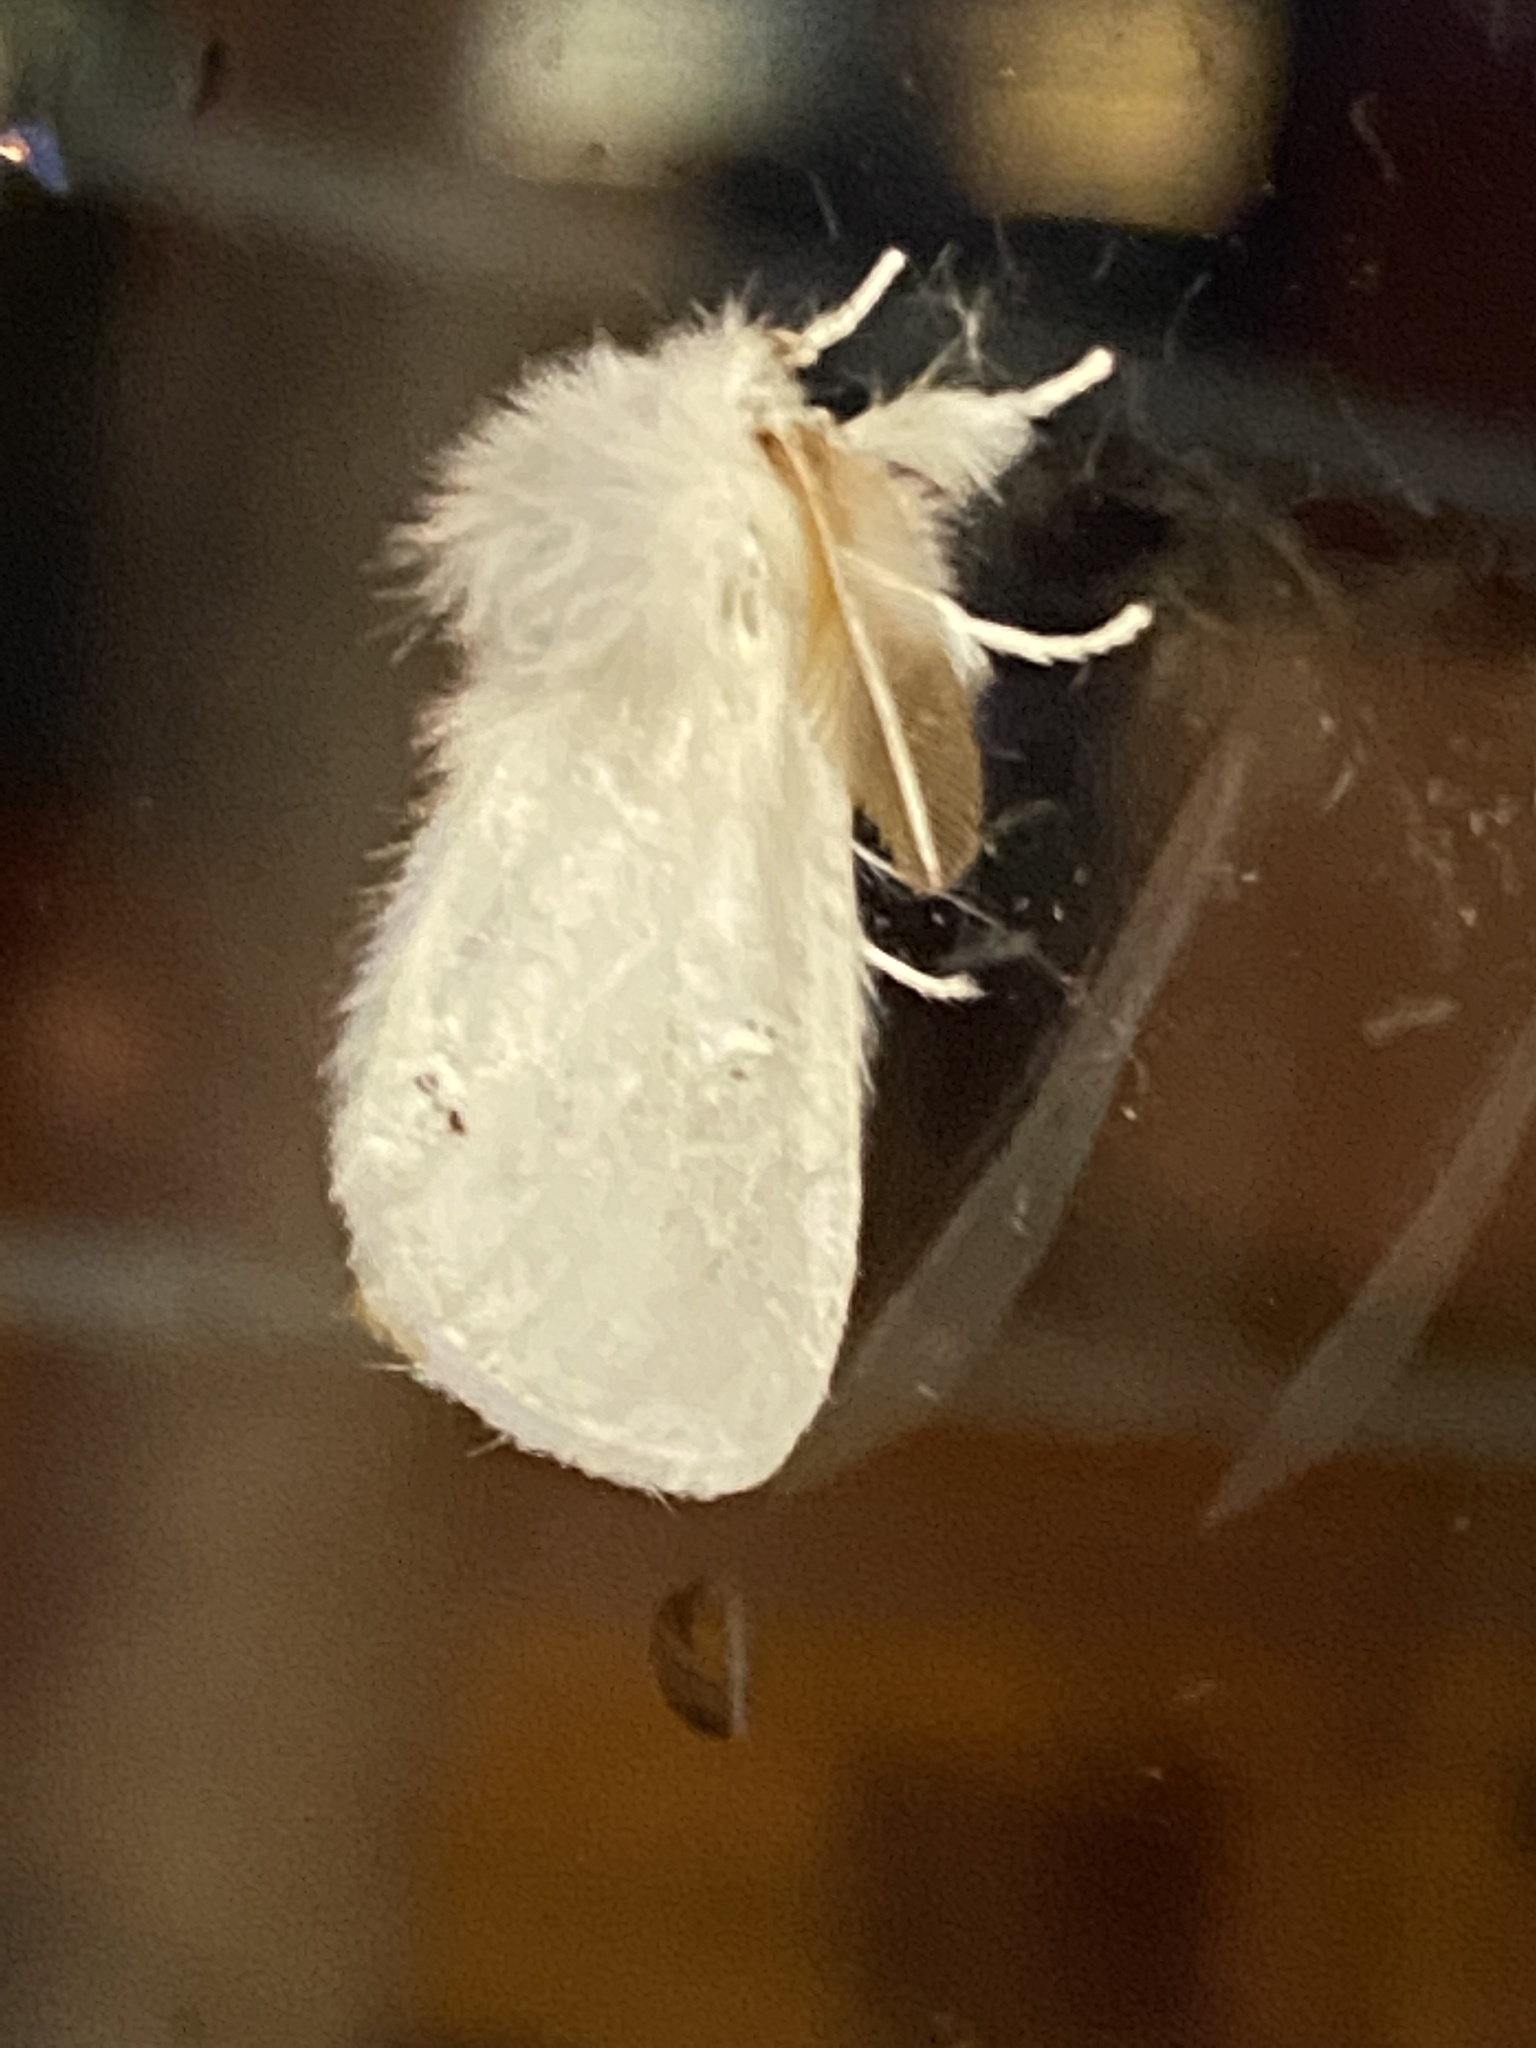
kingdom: Animalia
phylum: Arthropoda
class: Insecta
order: Lepidoptera
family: Erebidae
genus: Euproctis
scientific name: Euproctis chrysorrhoea
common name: Brown-tail
